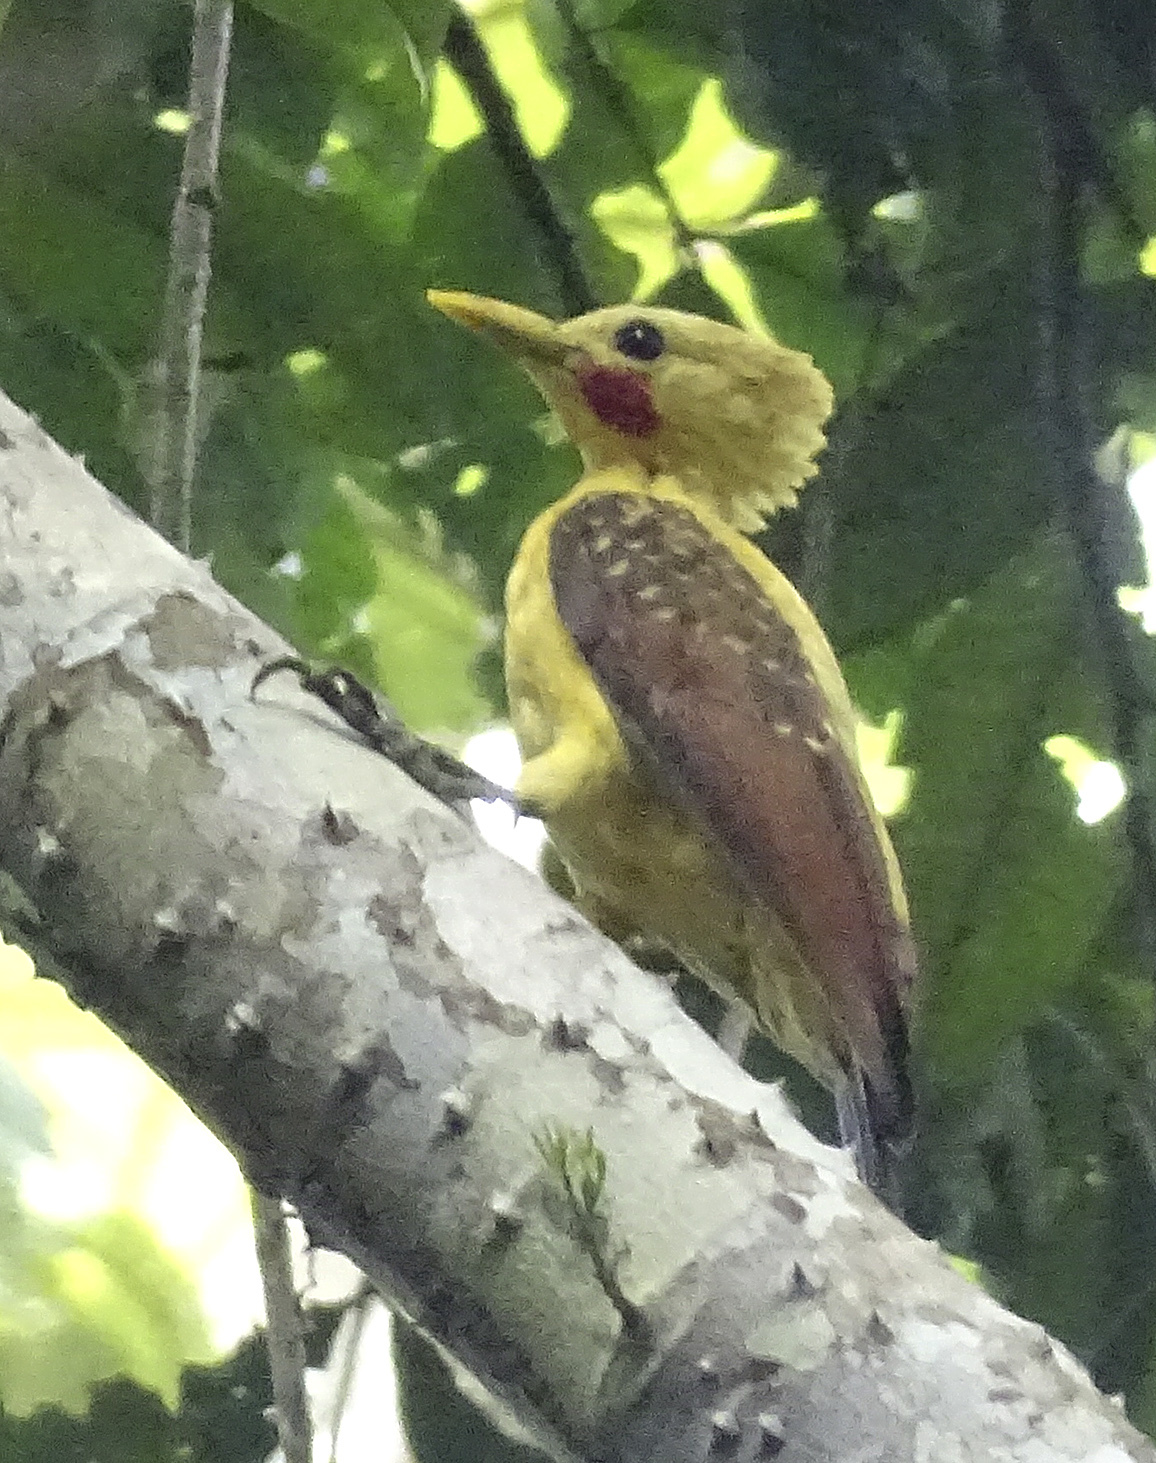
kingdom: Animalia
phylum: Chordata
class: Aves
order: Piciformes
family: Picidae
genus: Celeus
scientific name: Celeus flavus
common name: Cream-colored woodpecker
